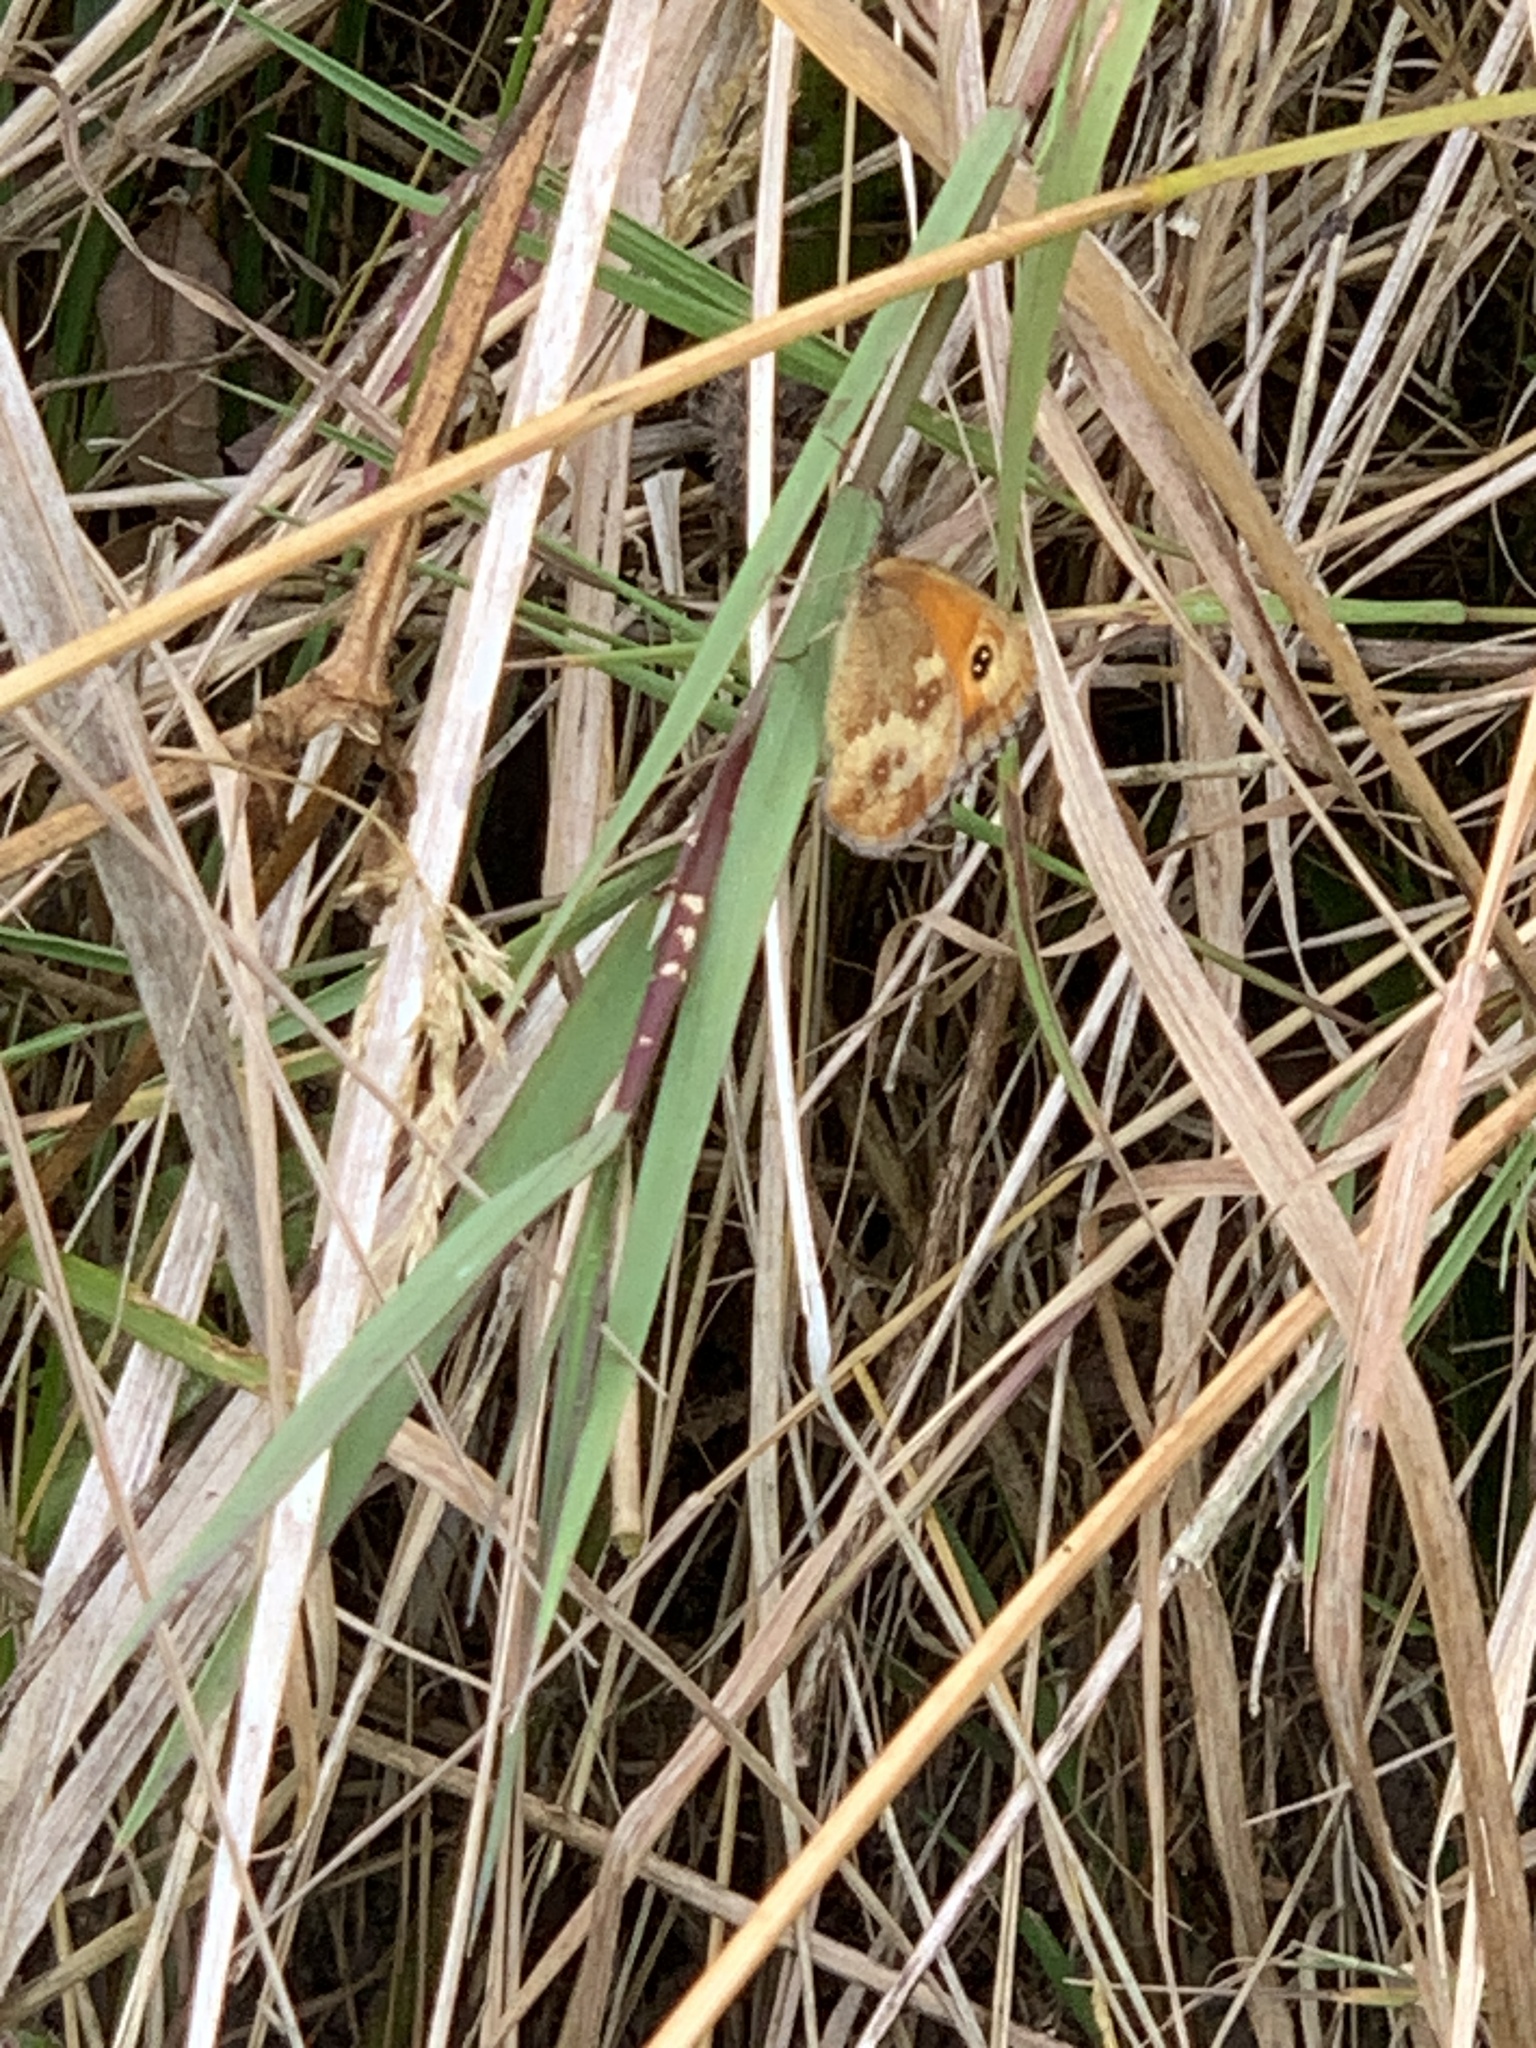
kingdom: Animalia
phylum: Arthropoda
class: Insecta
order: Lepidoptera
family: Nymphalidae
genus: Pyronia
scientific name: Pyronia tithonus
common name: Gatekeeper
